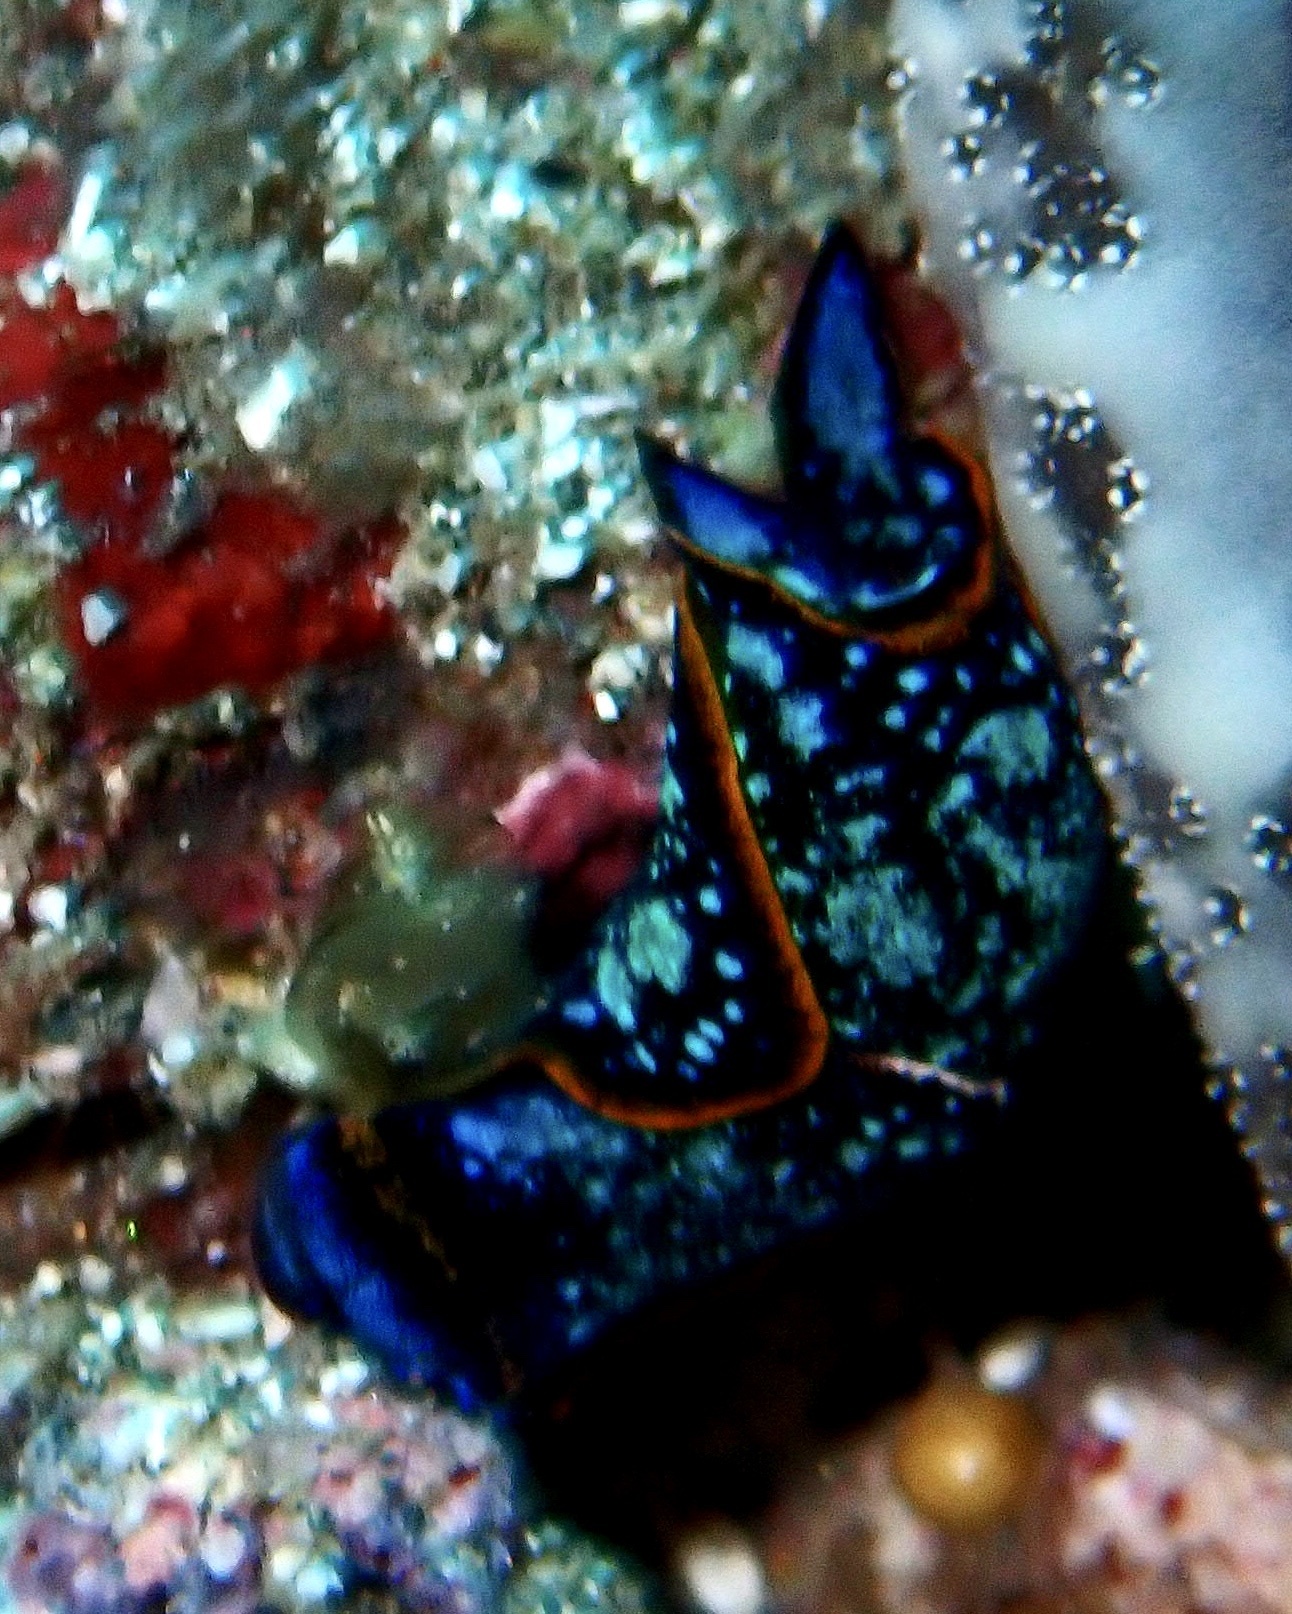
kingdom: Animalia
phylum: Mollusca
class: Gastropoda
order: Cephalaspidea
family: Aglajidae
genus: Camachoaglaja
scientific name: Camachoaglaja binter
